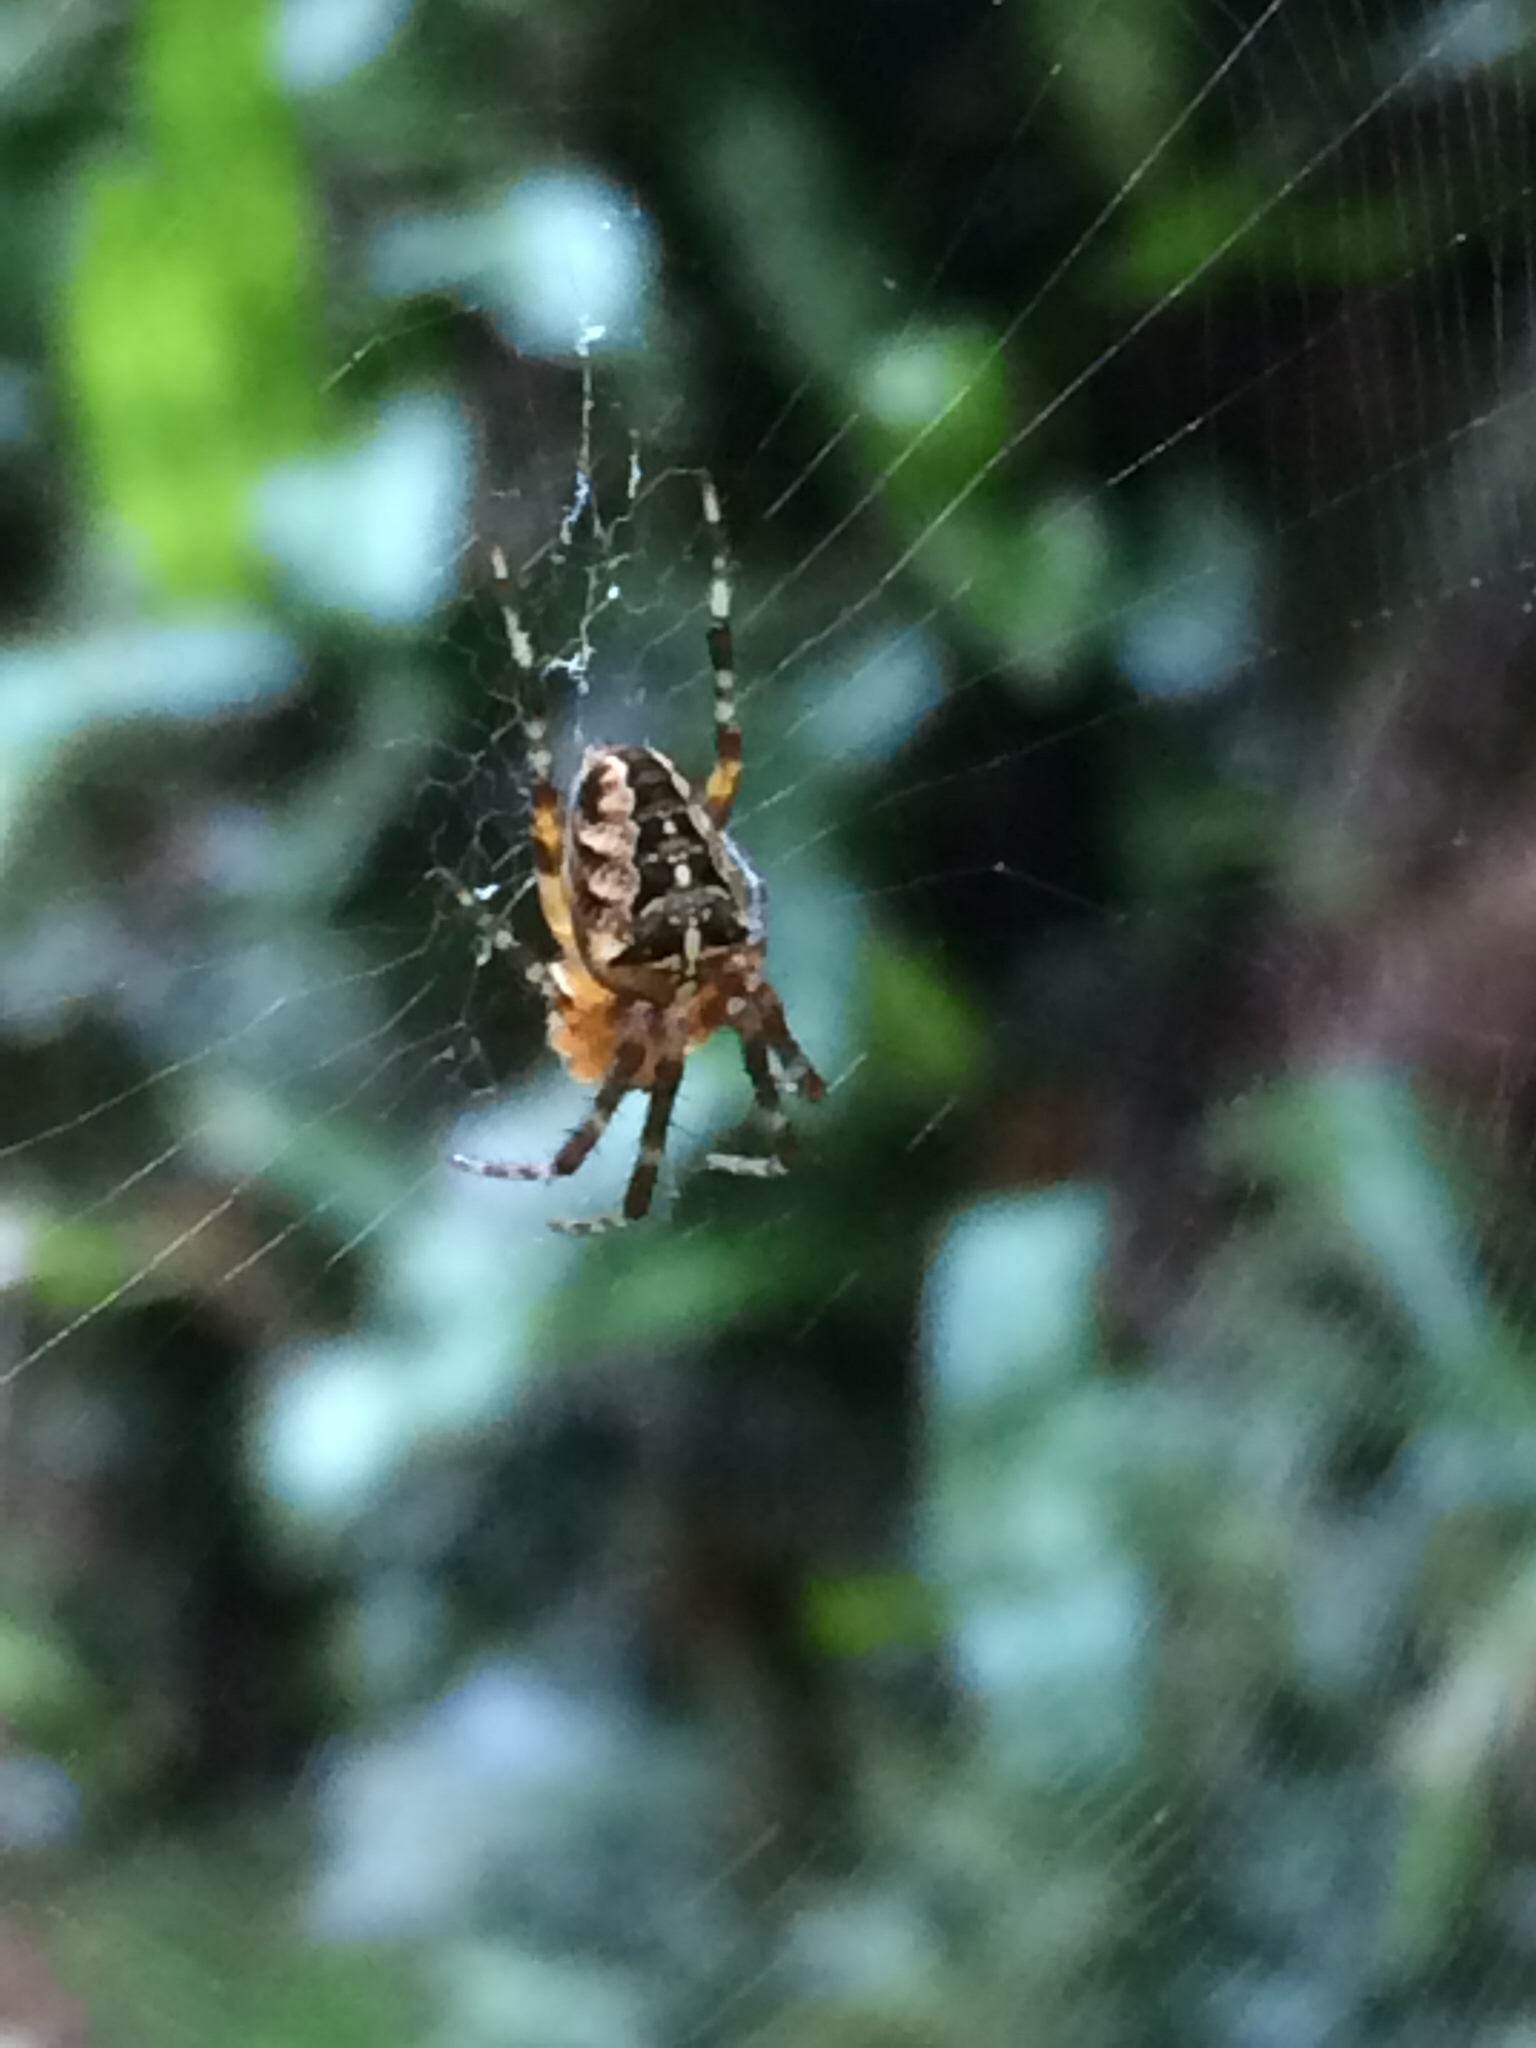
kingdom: Animalia
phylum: Arthropoda
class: Arachnida
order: Araneae
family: Araneidae
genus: Araneus
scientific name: Araneus diadematus
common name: Cross orbweaver
